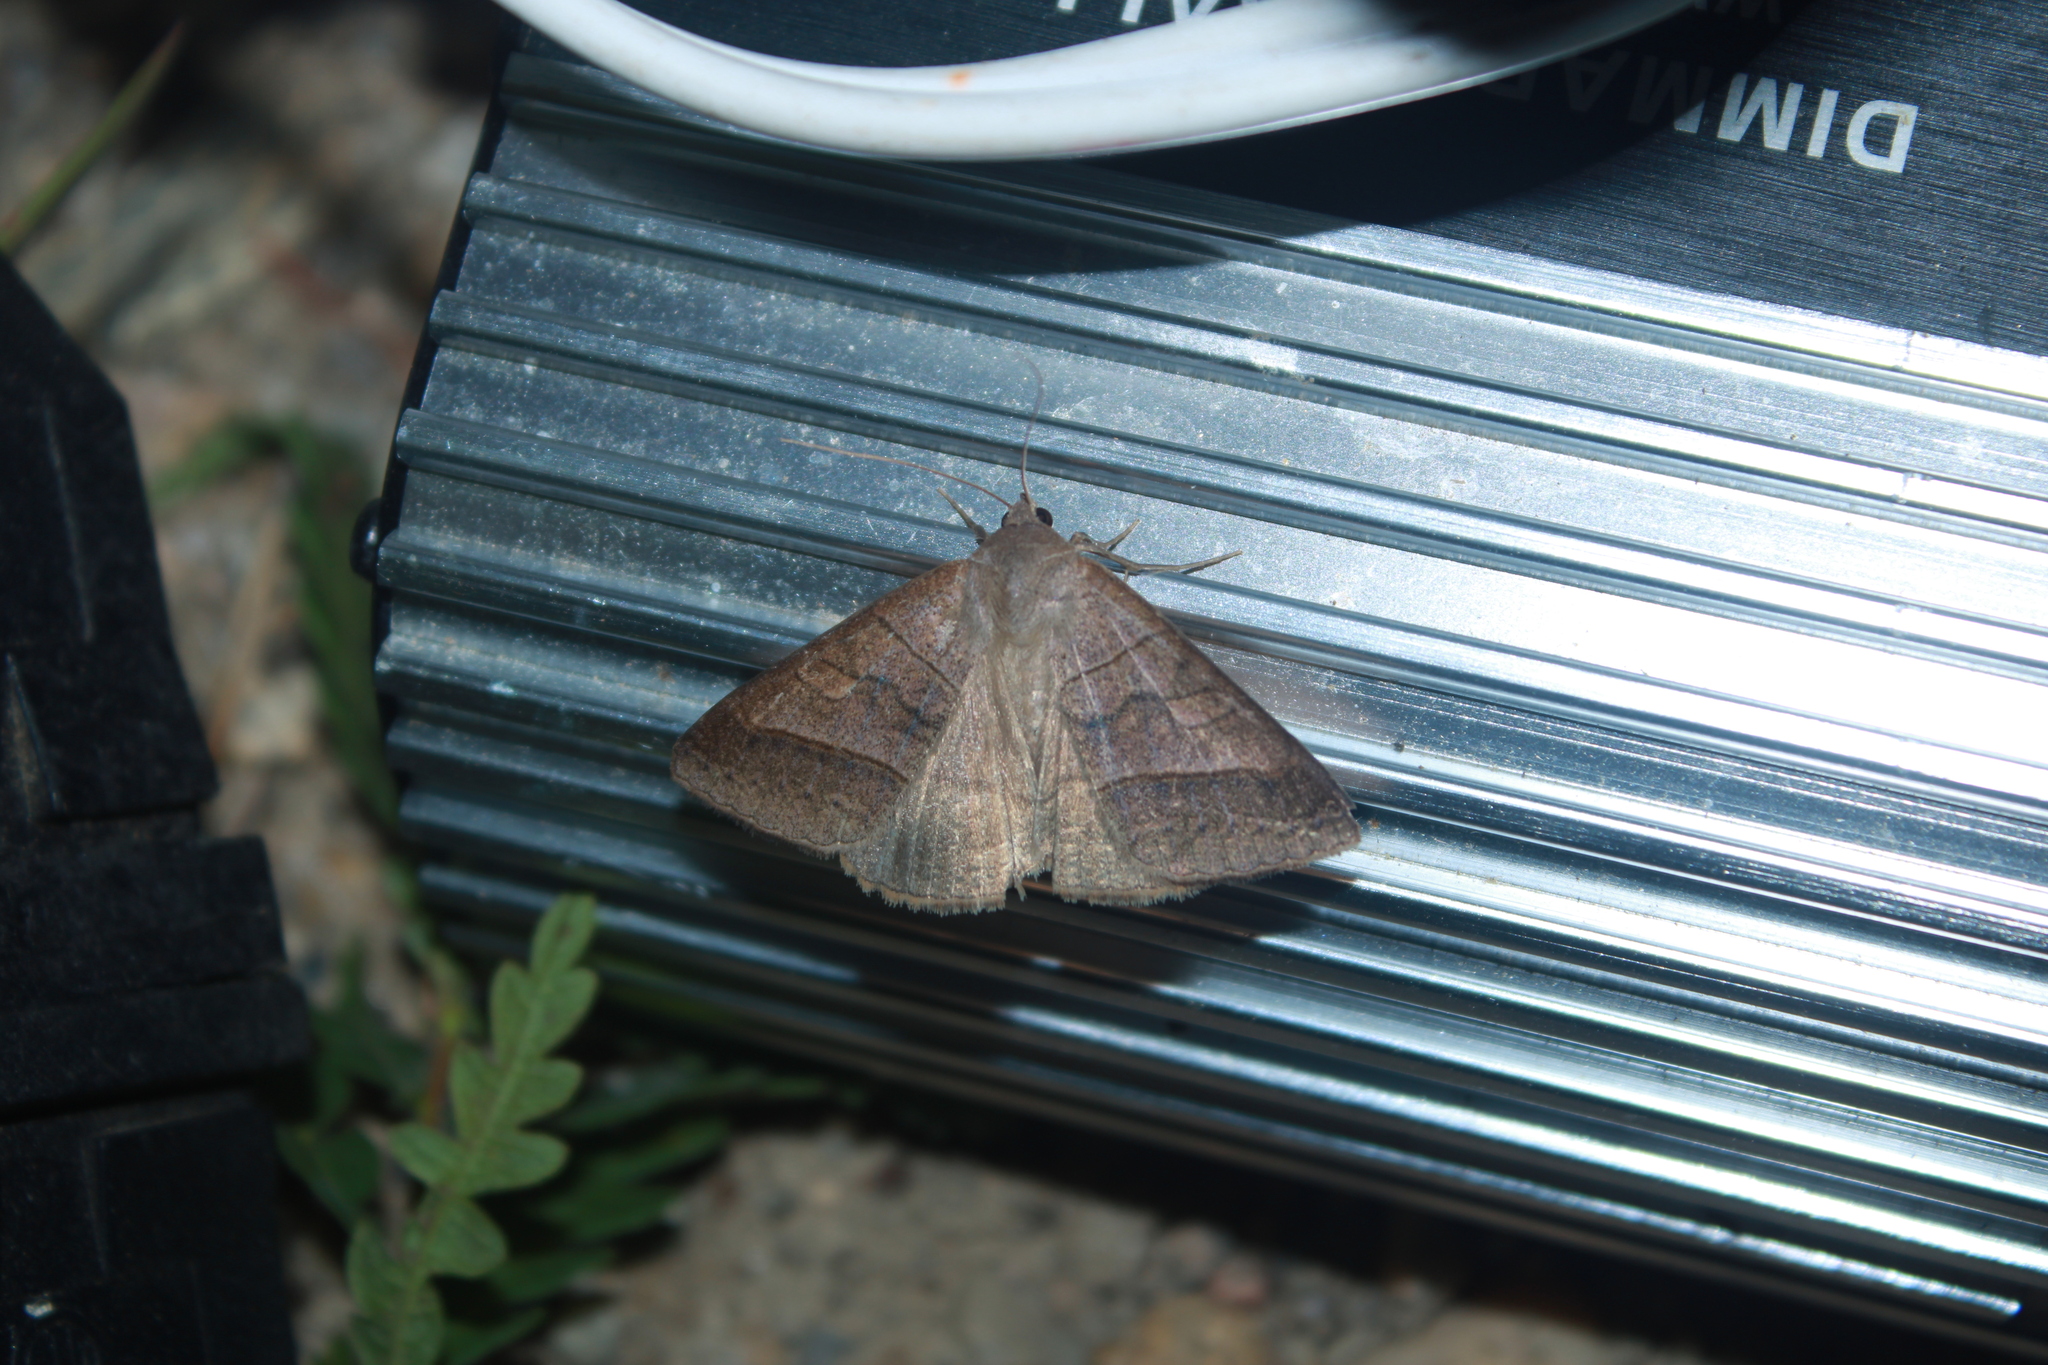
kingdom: Animalia
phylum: Arthropoda
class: Insecta
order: Lepidoptera
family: Erebidae
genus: Mocis
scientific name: Mocis texana
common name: Texas mocis moth
